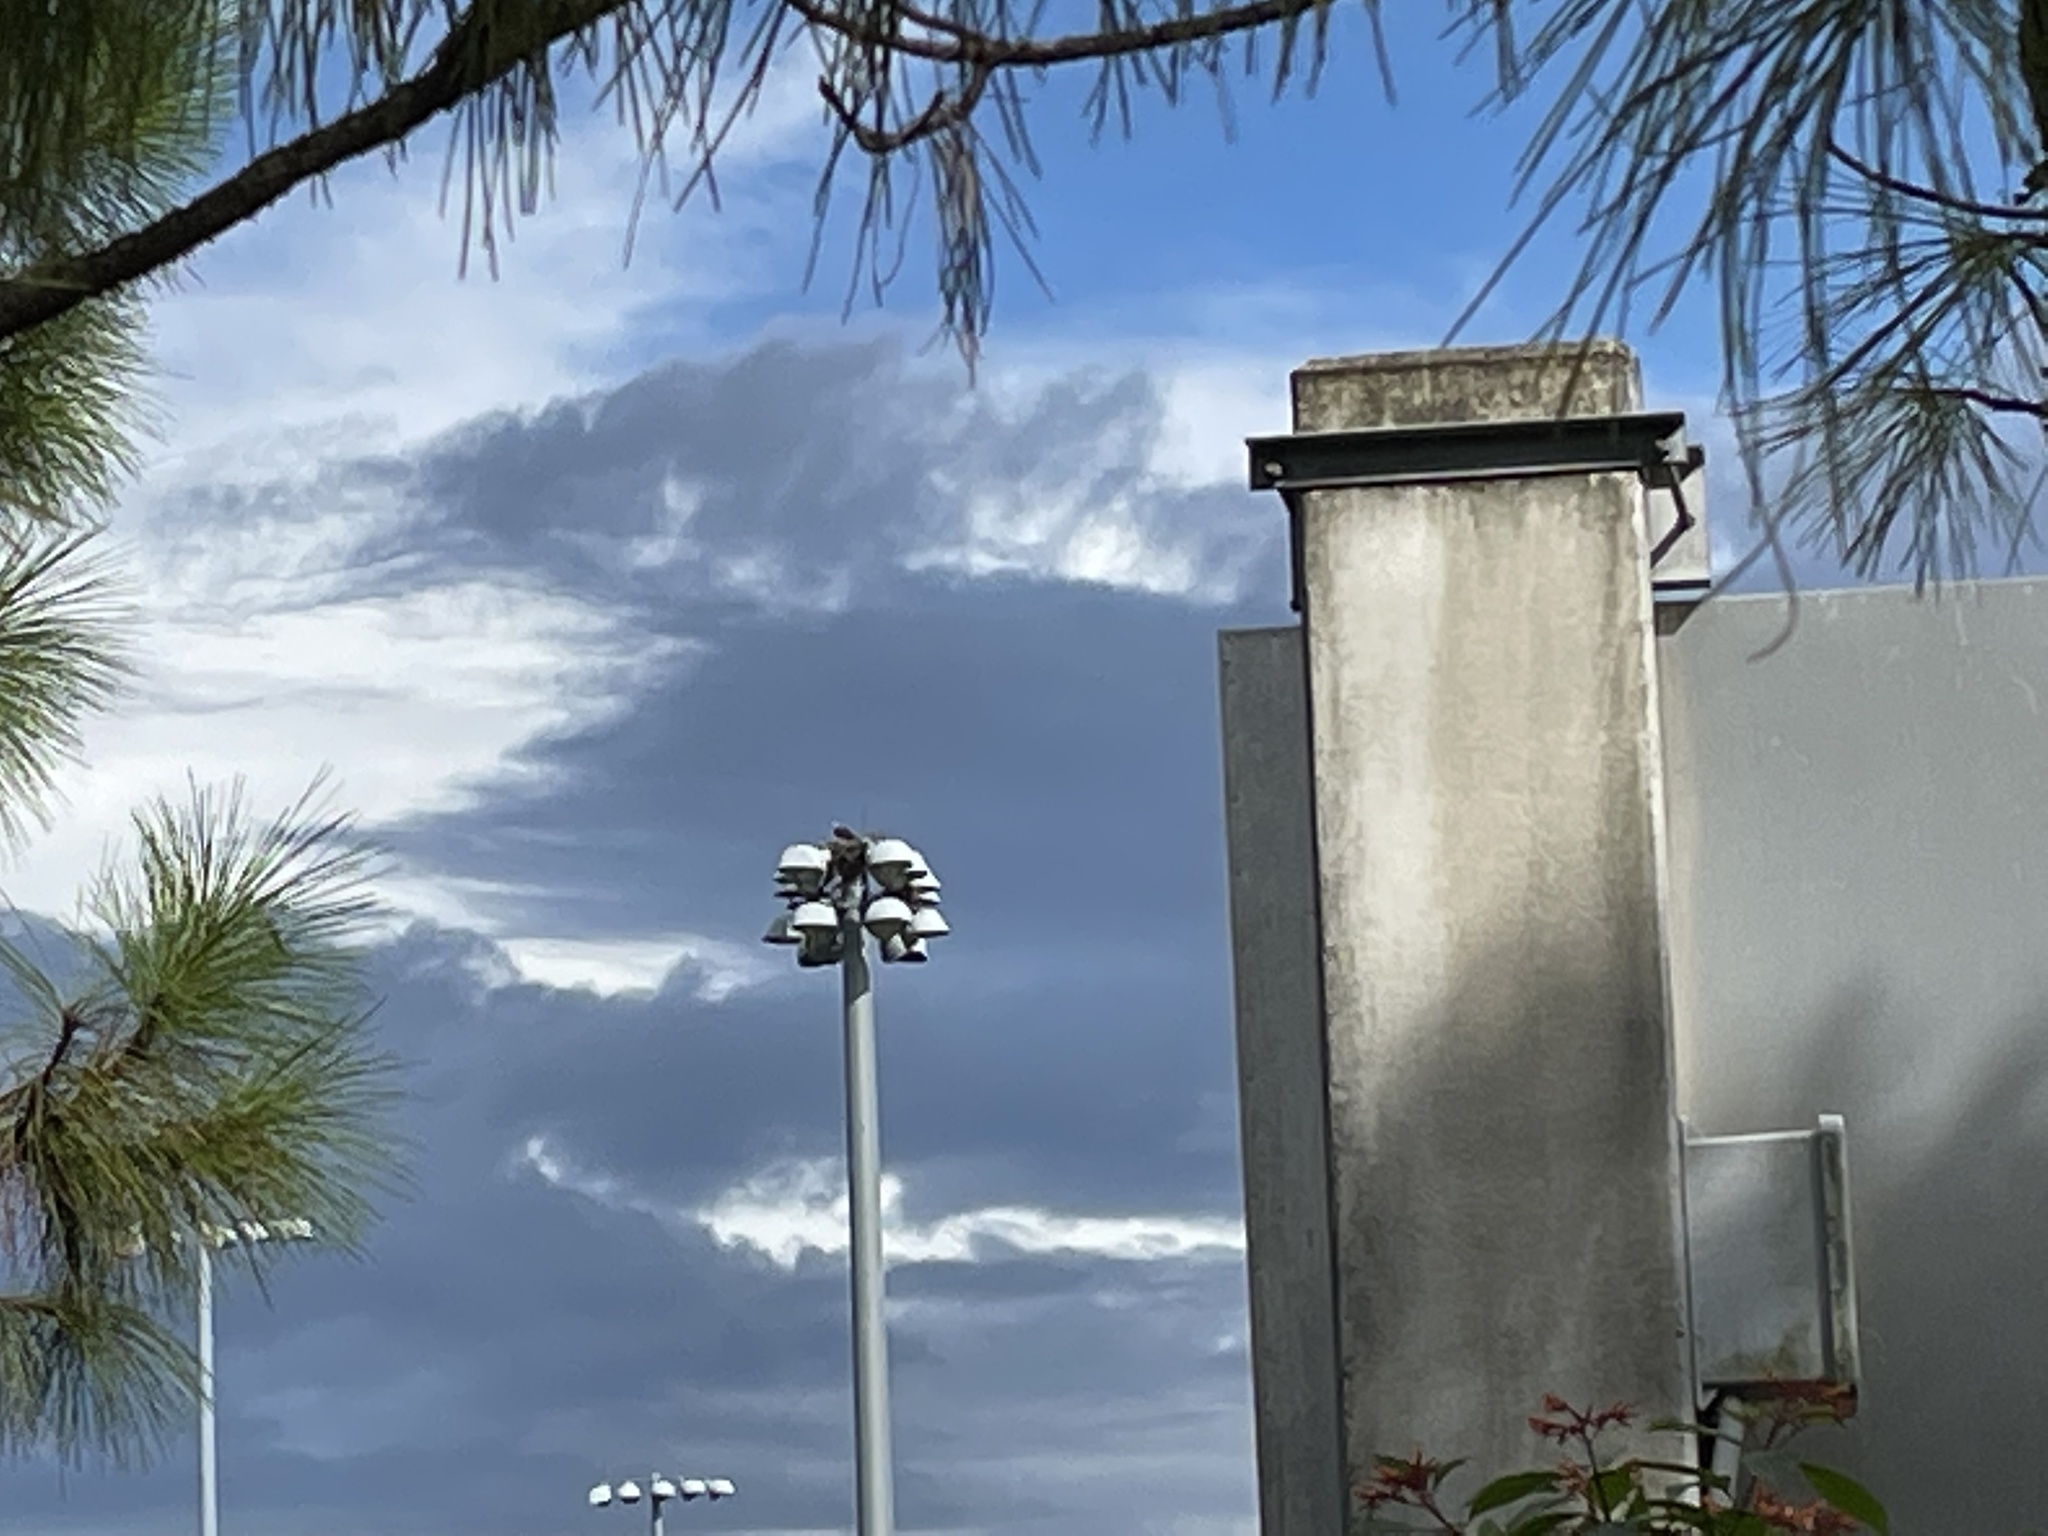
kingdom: Animalia
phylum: Chordata
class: Aves
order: Accipitriformes
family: Pandionidae
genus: Pandion
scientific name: Pandion haliaetus
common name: Osprey
